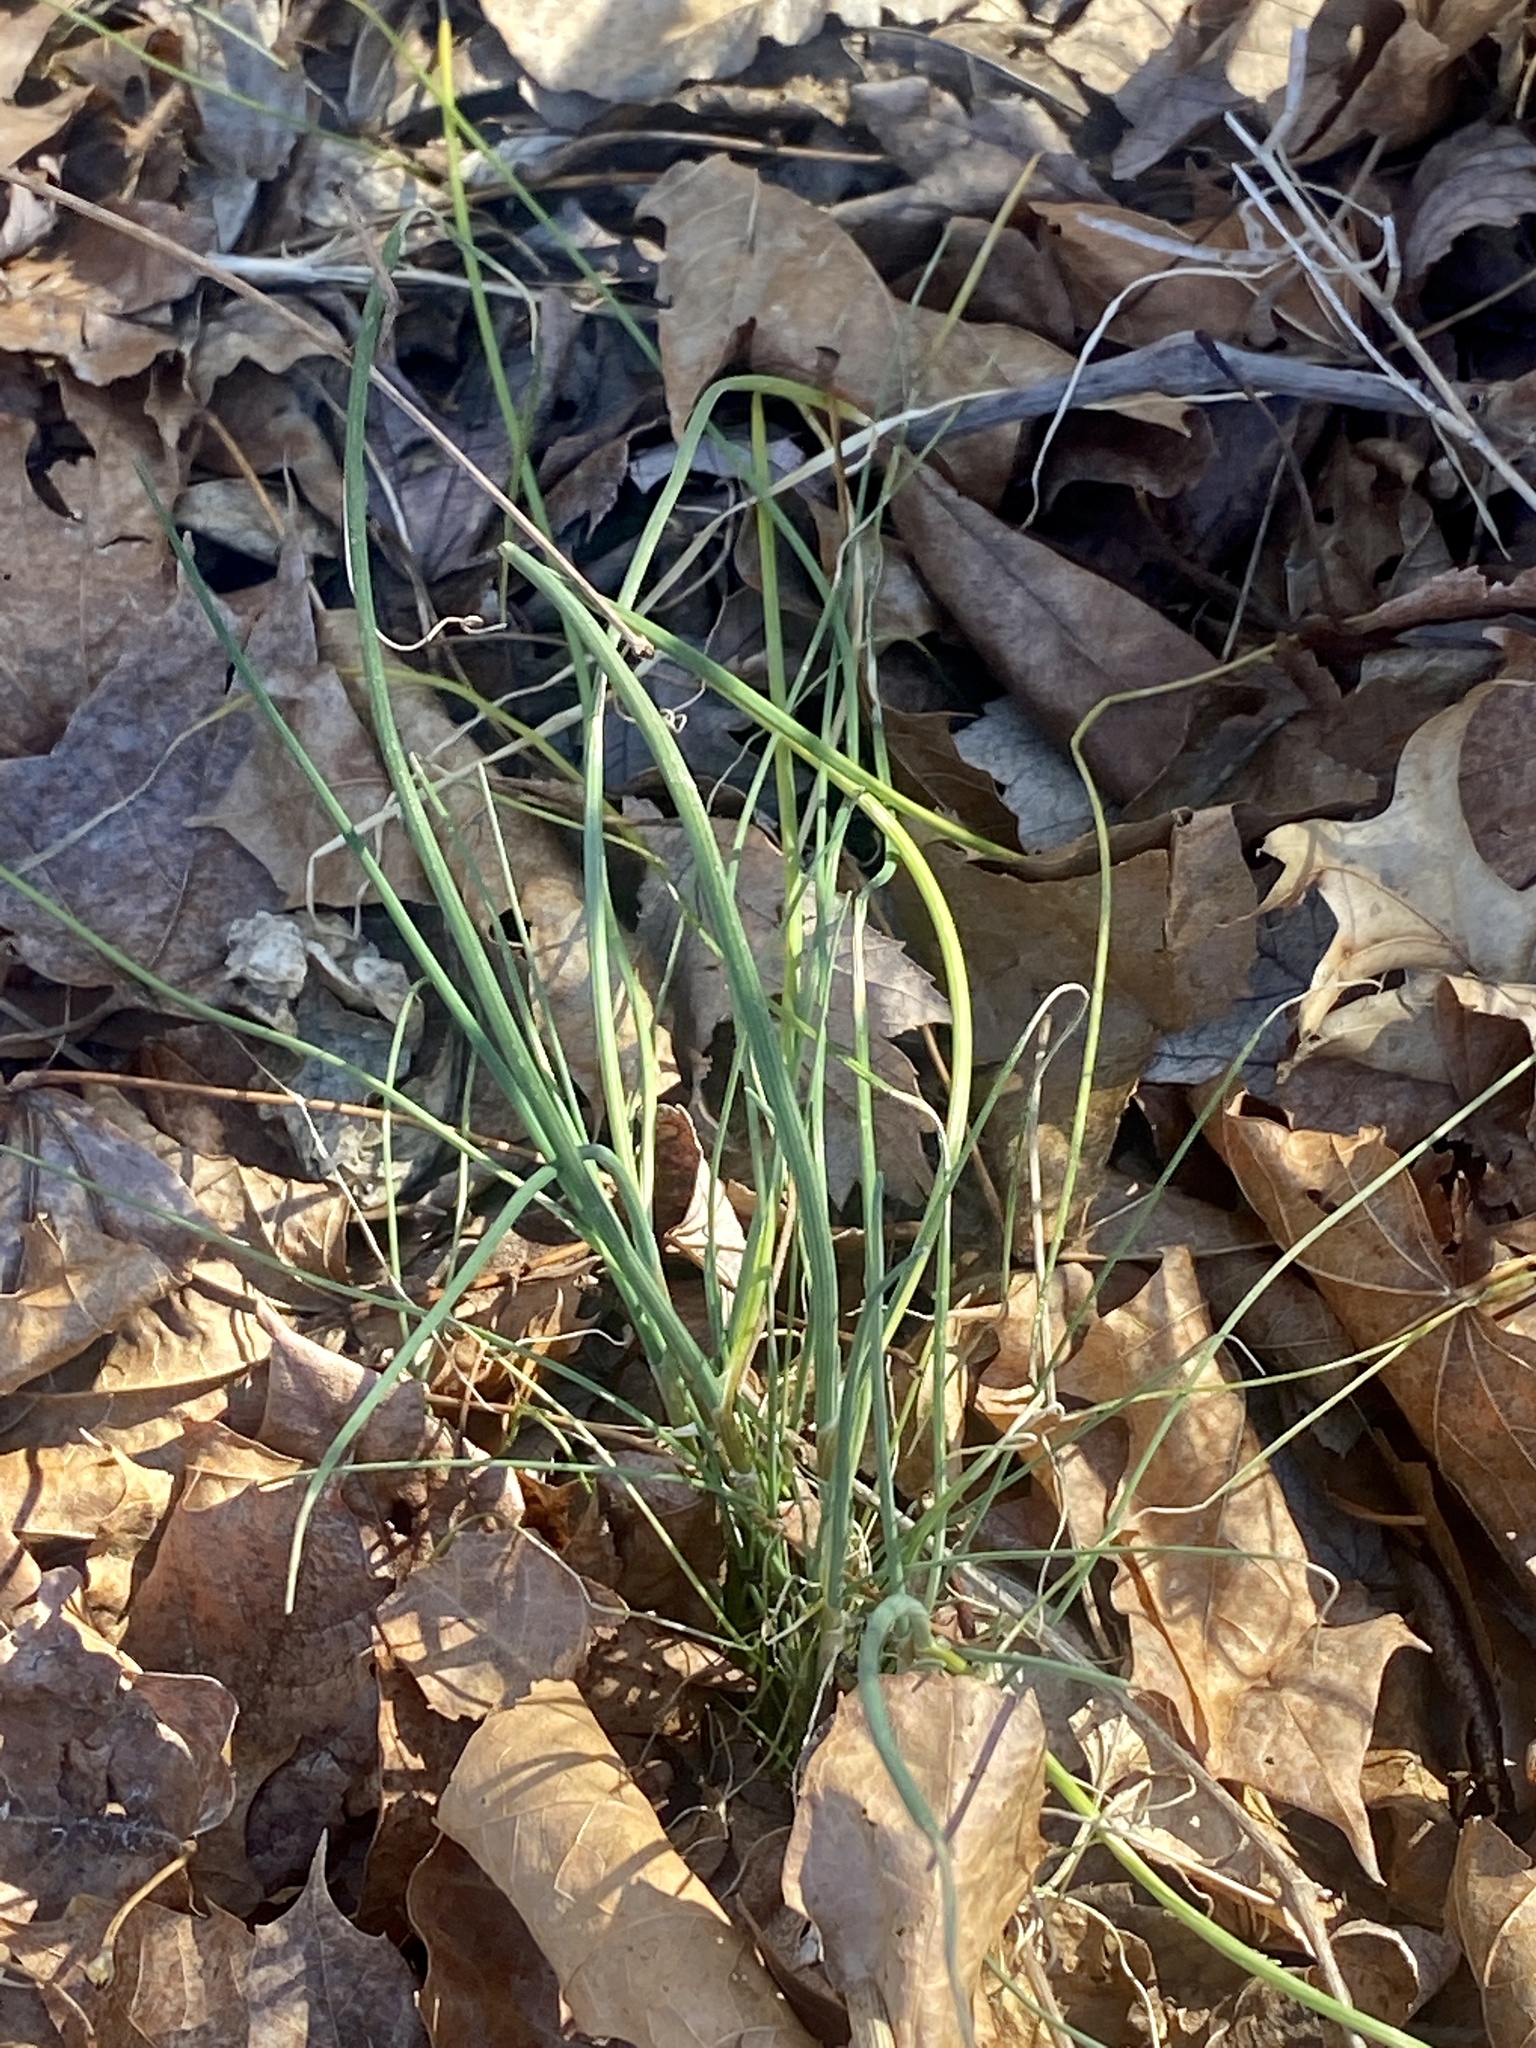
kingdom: Plantae
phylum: Tracheophyta
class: Liliopsida
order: Asparagales
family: Amaryllidaceae
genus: Allium
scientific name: Allium vineale
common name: Crow garlic
